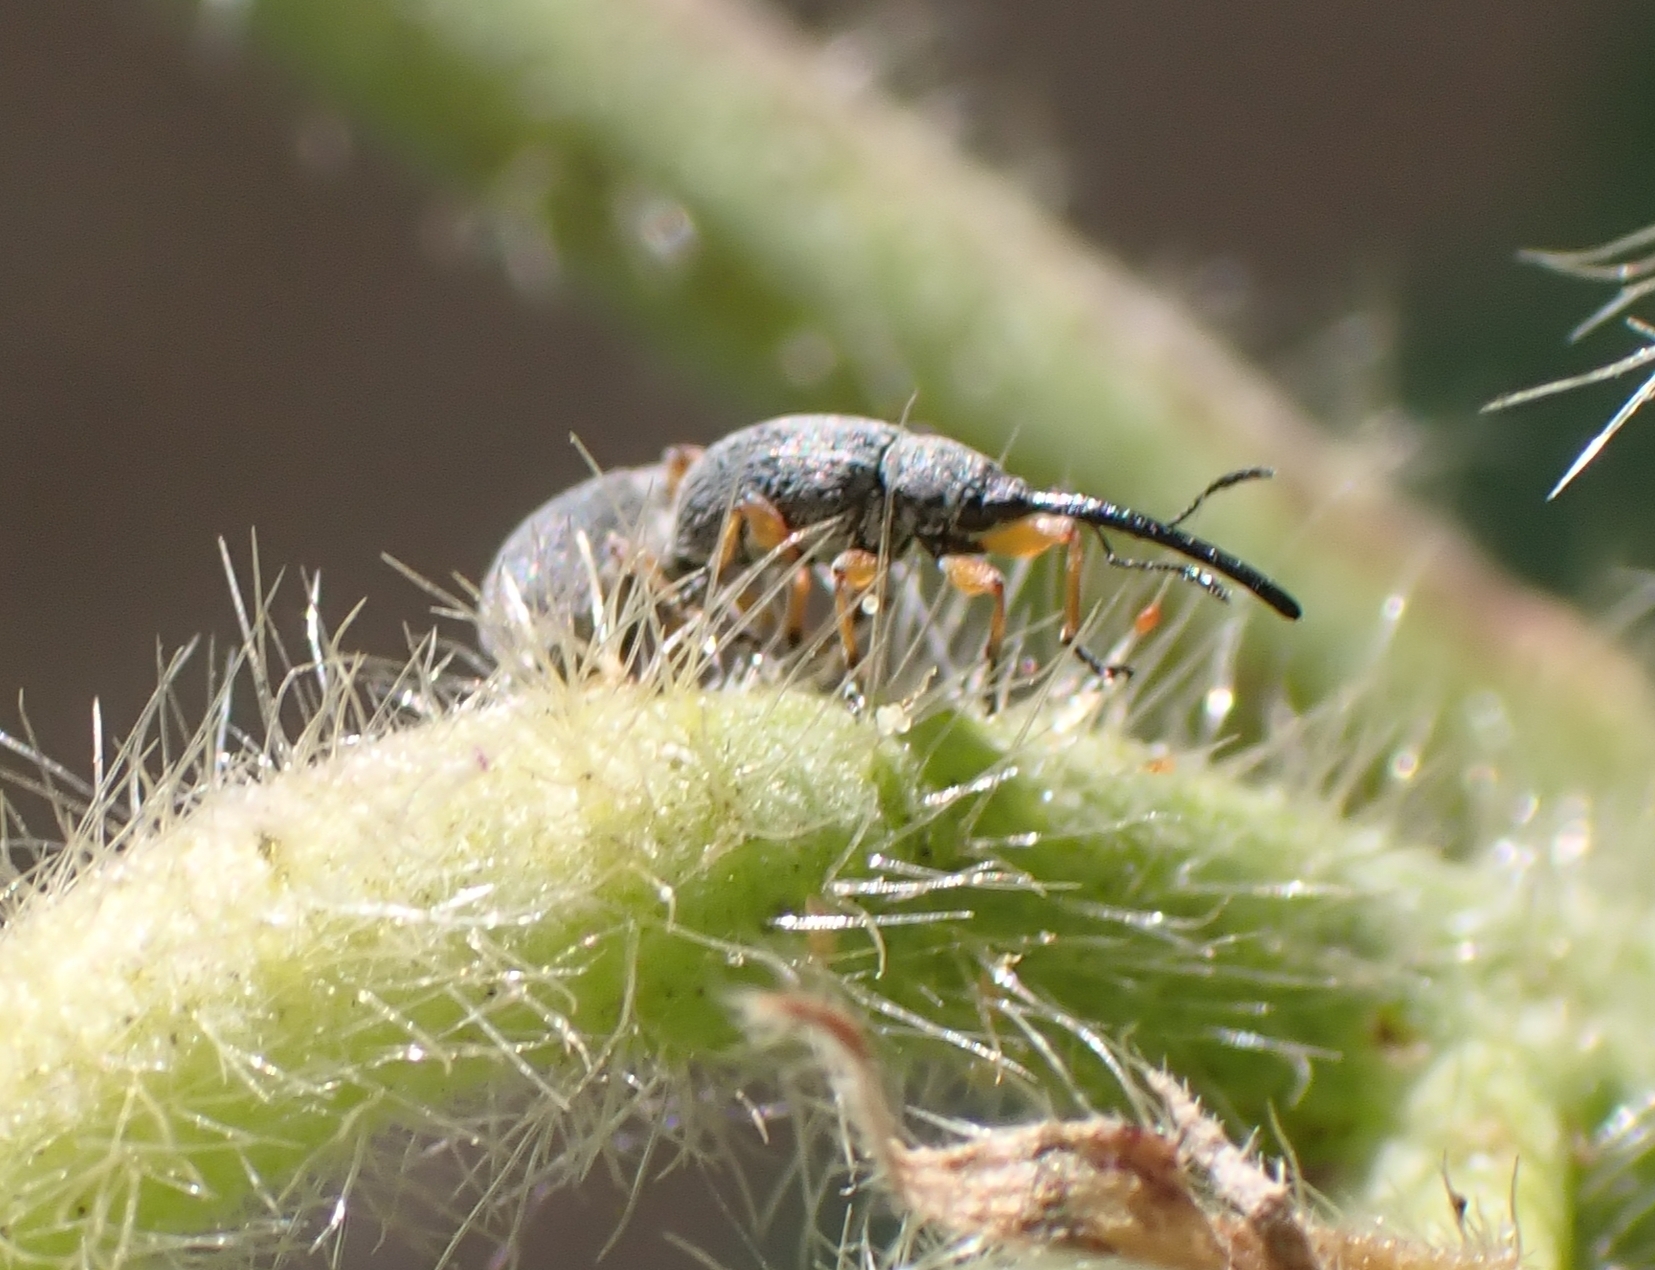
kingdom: Animalia
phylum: Arthropoda
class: Insecta
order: Coleoptera
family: Brentidae
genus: Rhopalapion
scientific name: Rhopalapion longirostre
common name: Hollyhock weevil
